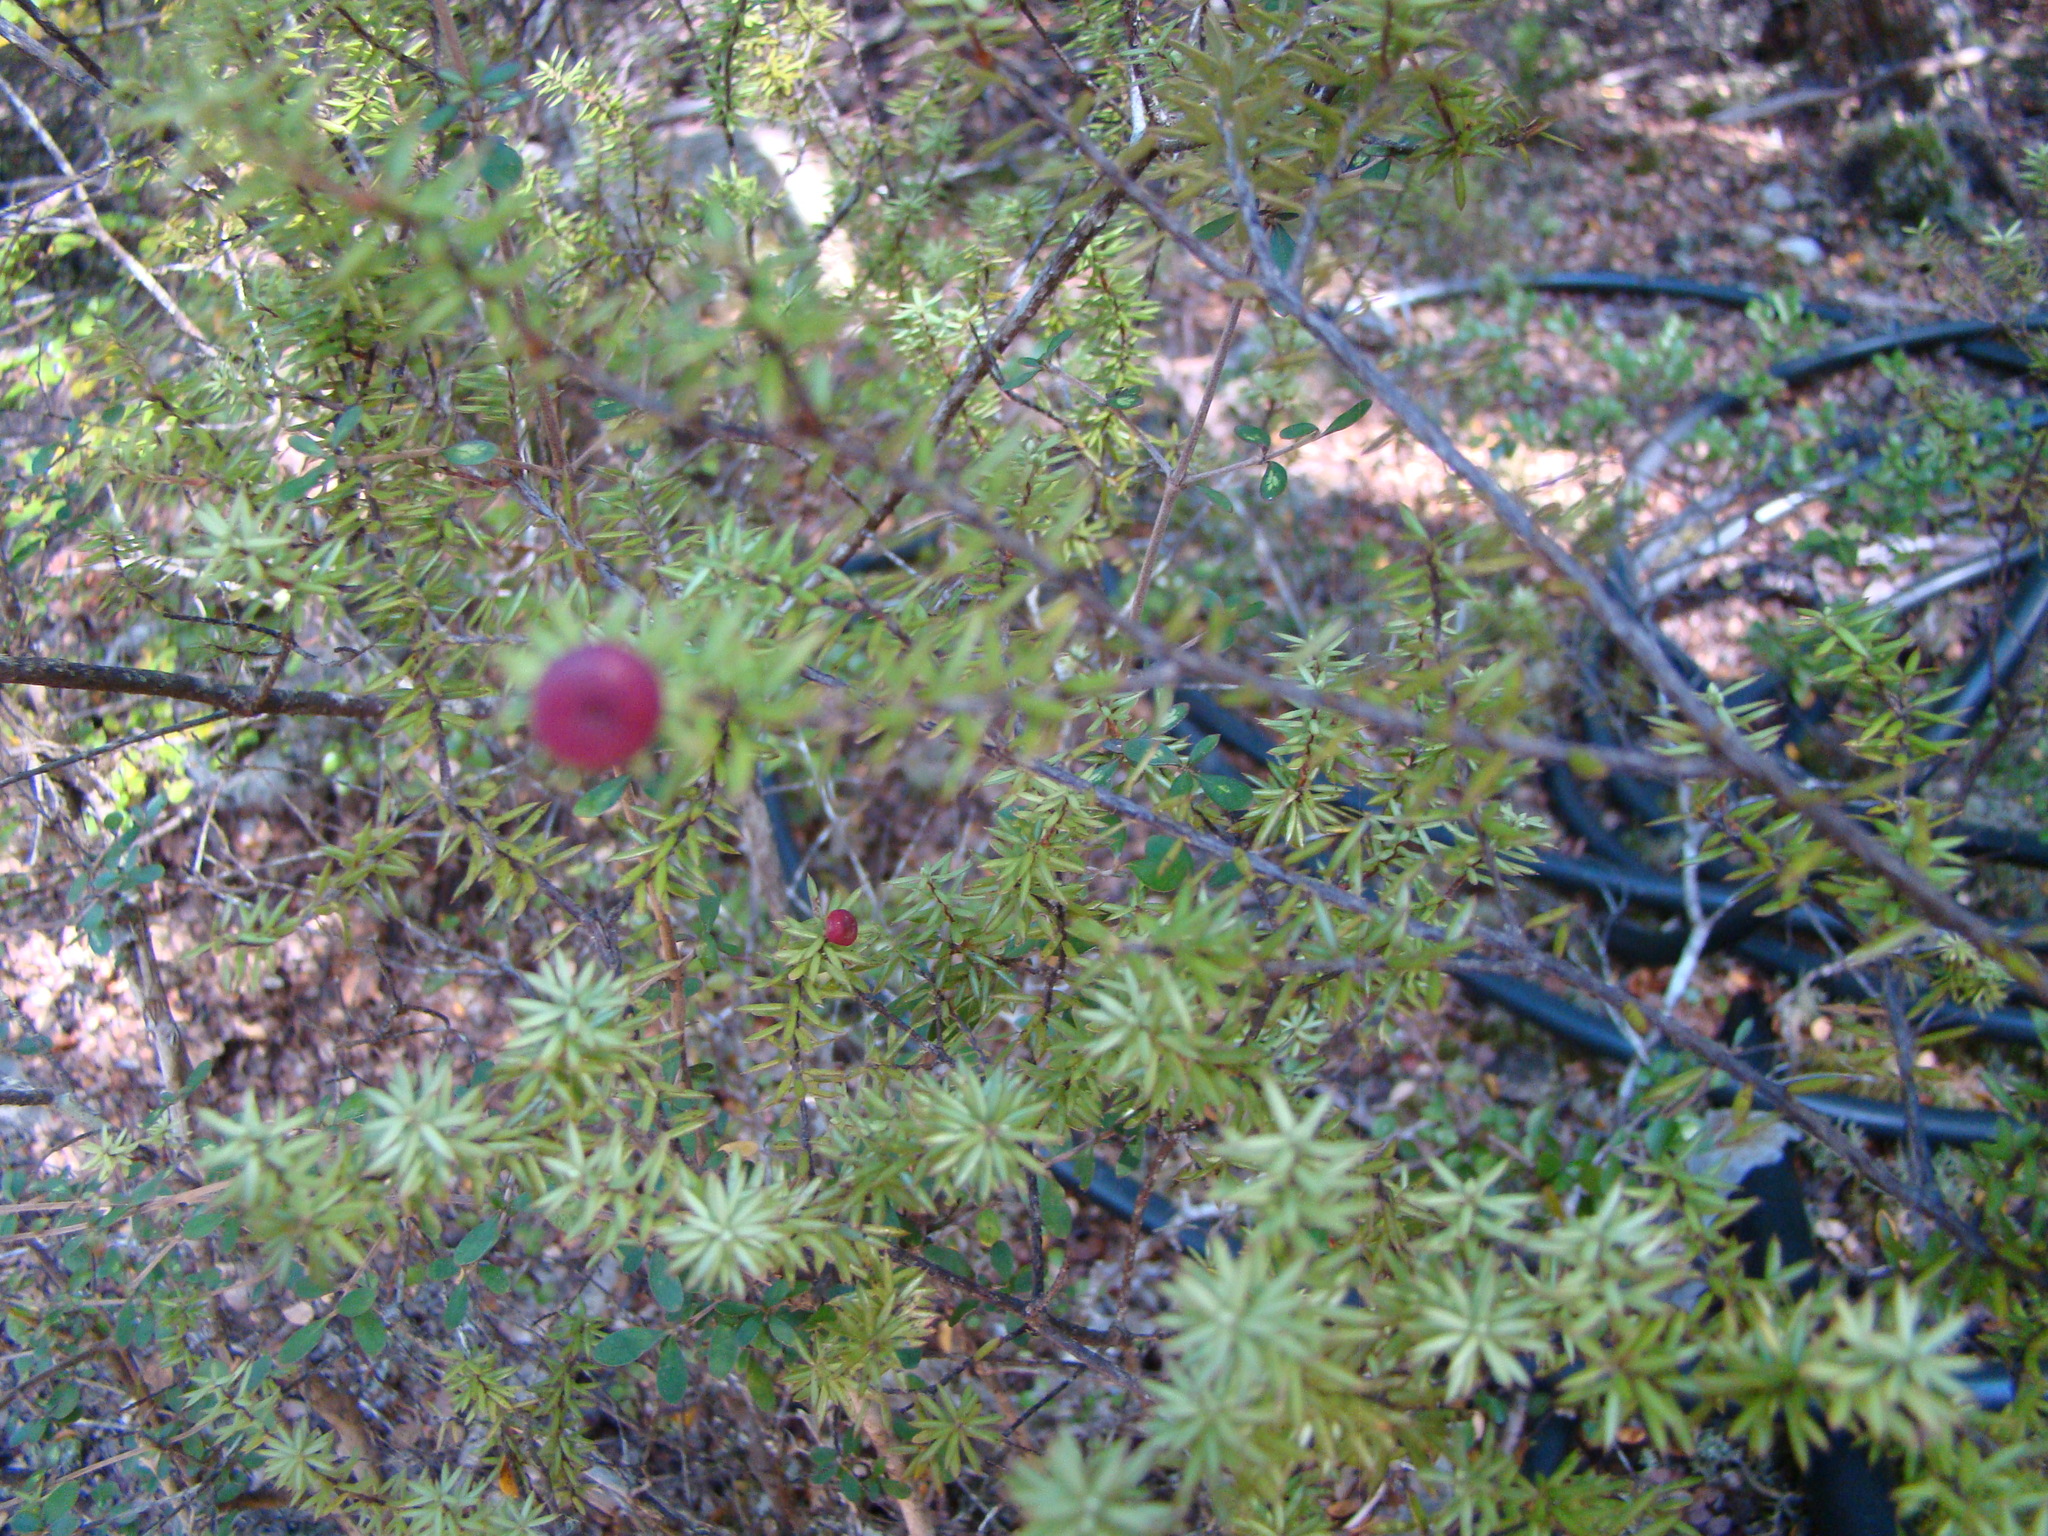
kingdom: Plantae
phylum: Tracheophyta
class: Magnoliopsida
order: Ericales
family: Ericaceae
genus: Leptecophylla
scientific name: Leptecophylla juniperina
